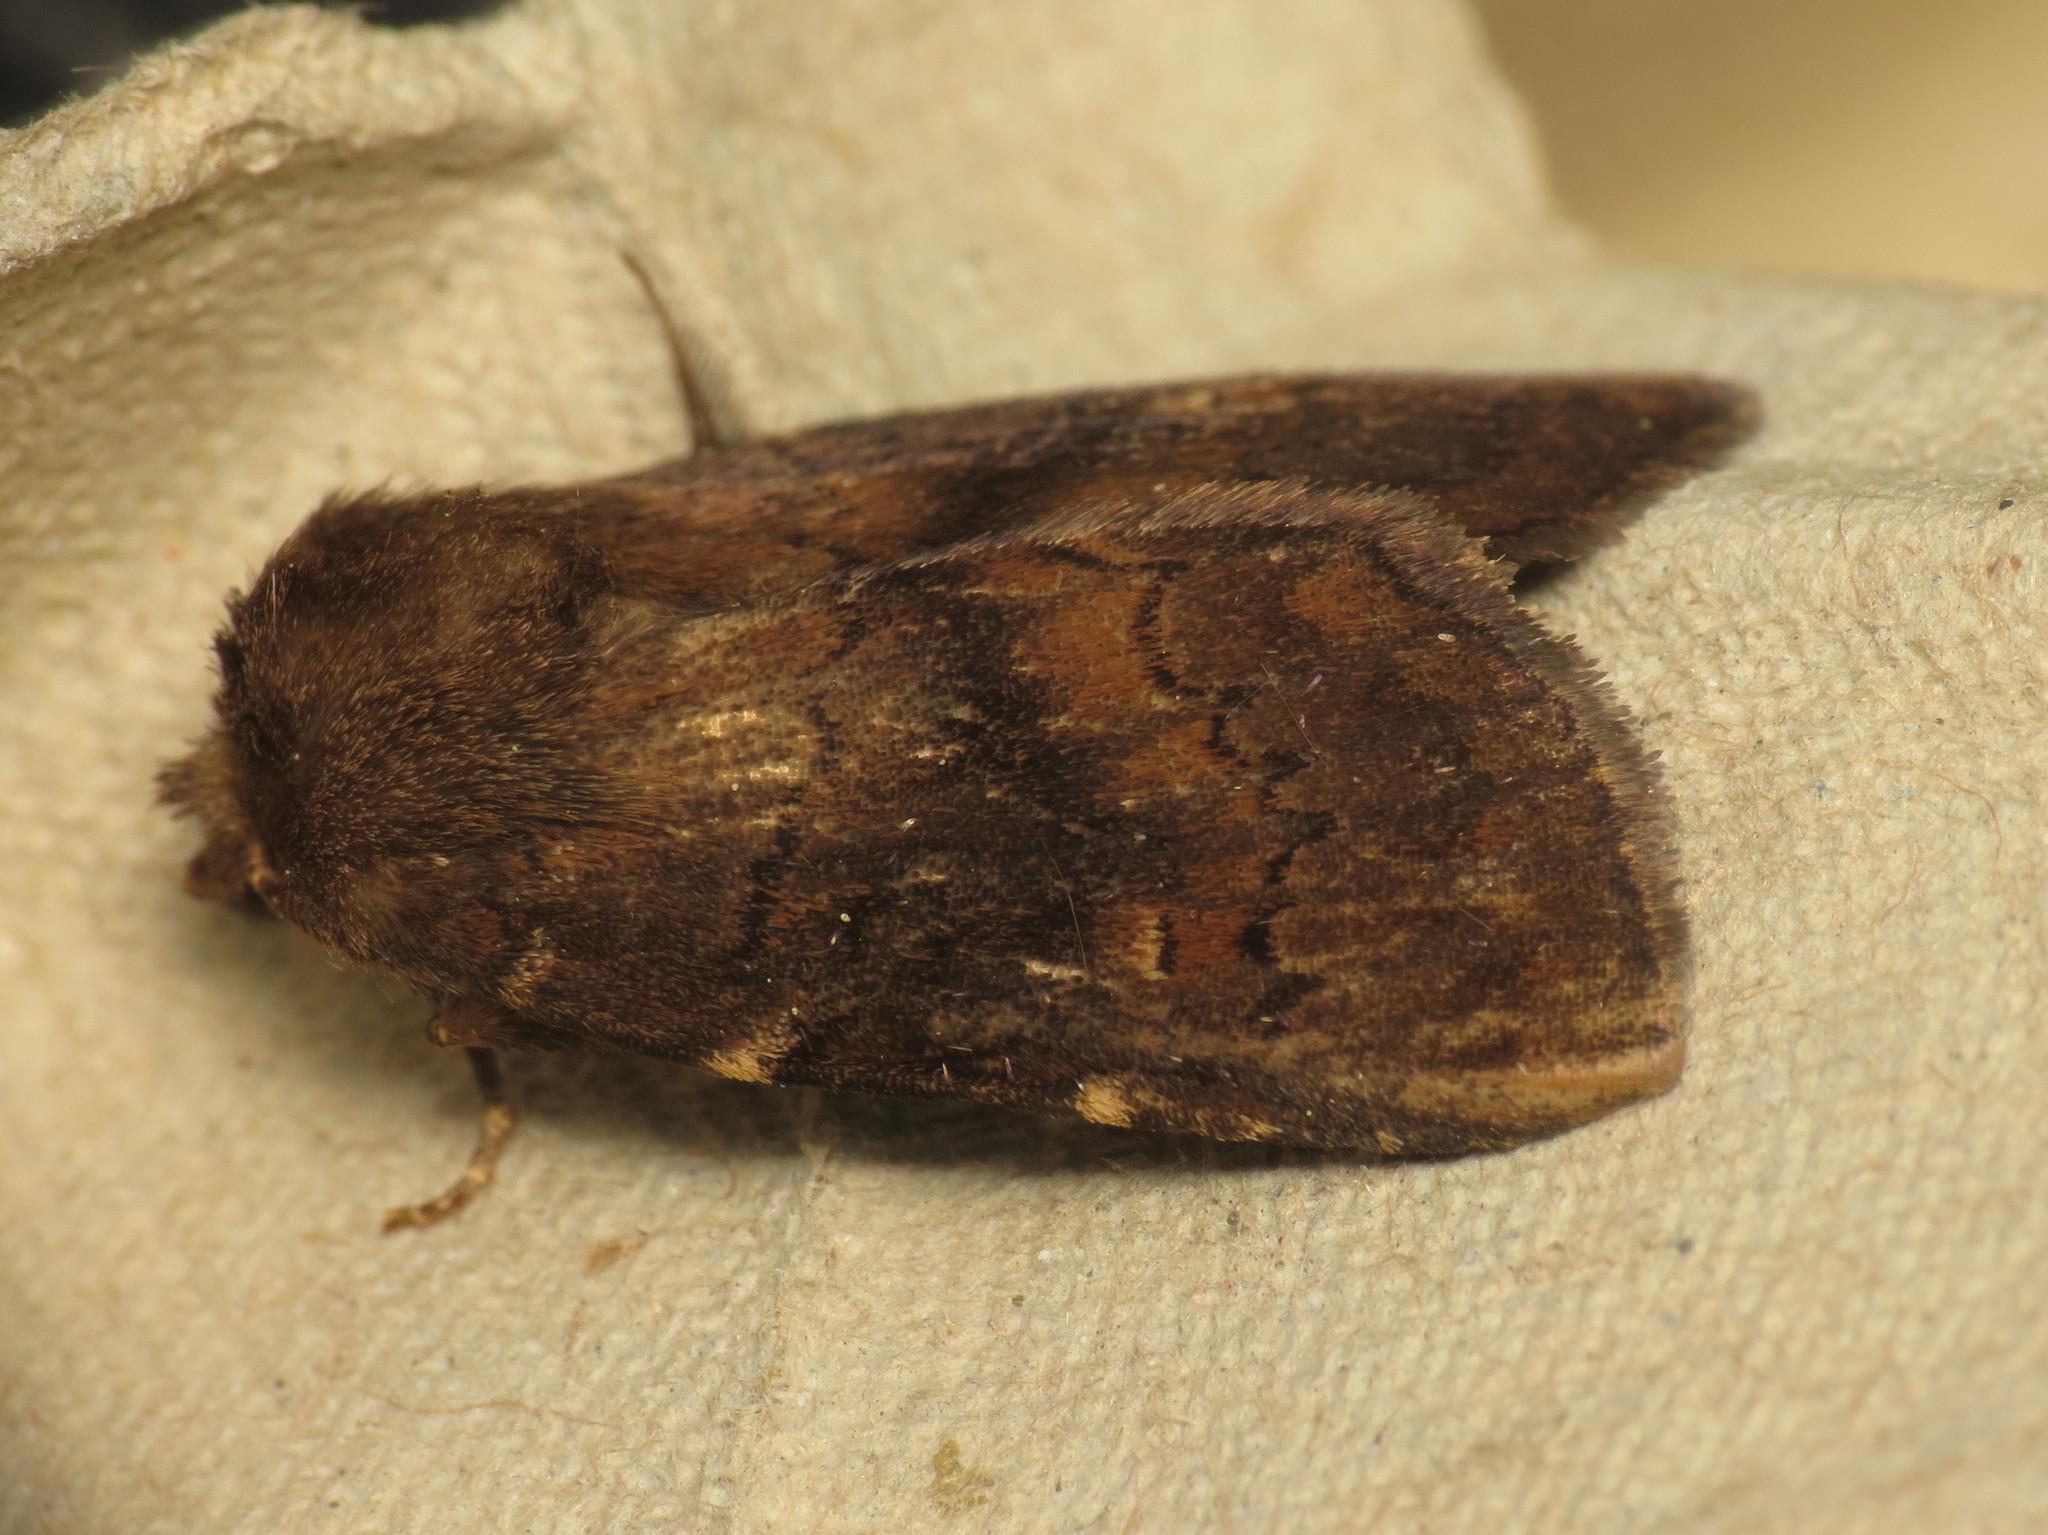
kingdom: Animalia
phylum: Arthropoda
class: Insecta
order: Lepidoptera
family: Noctuidae
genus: Charanyca
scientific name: Charanyca ferruginea
